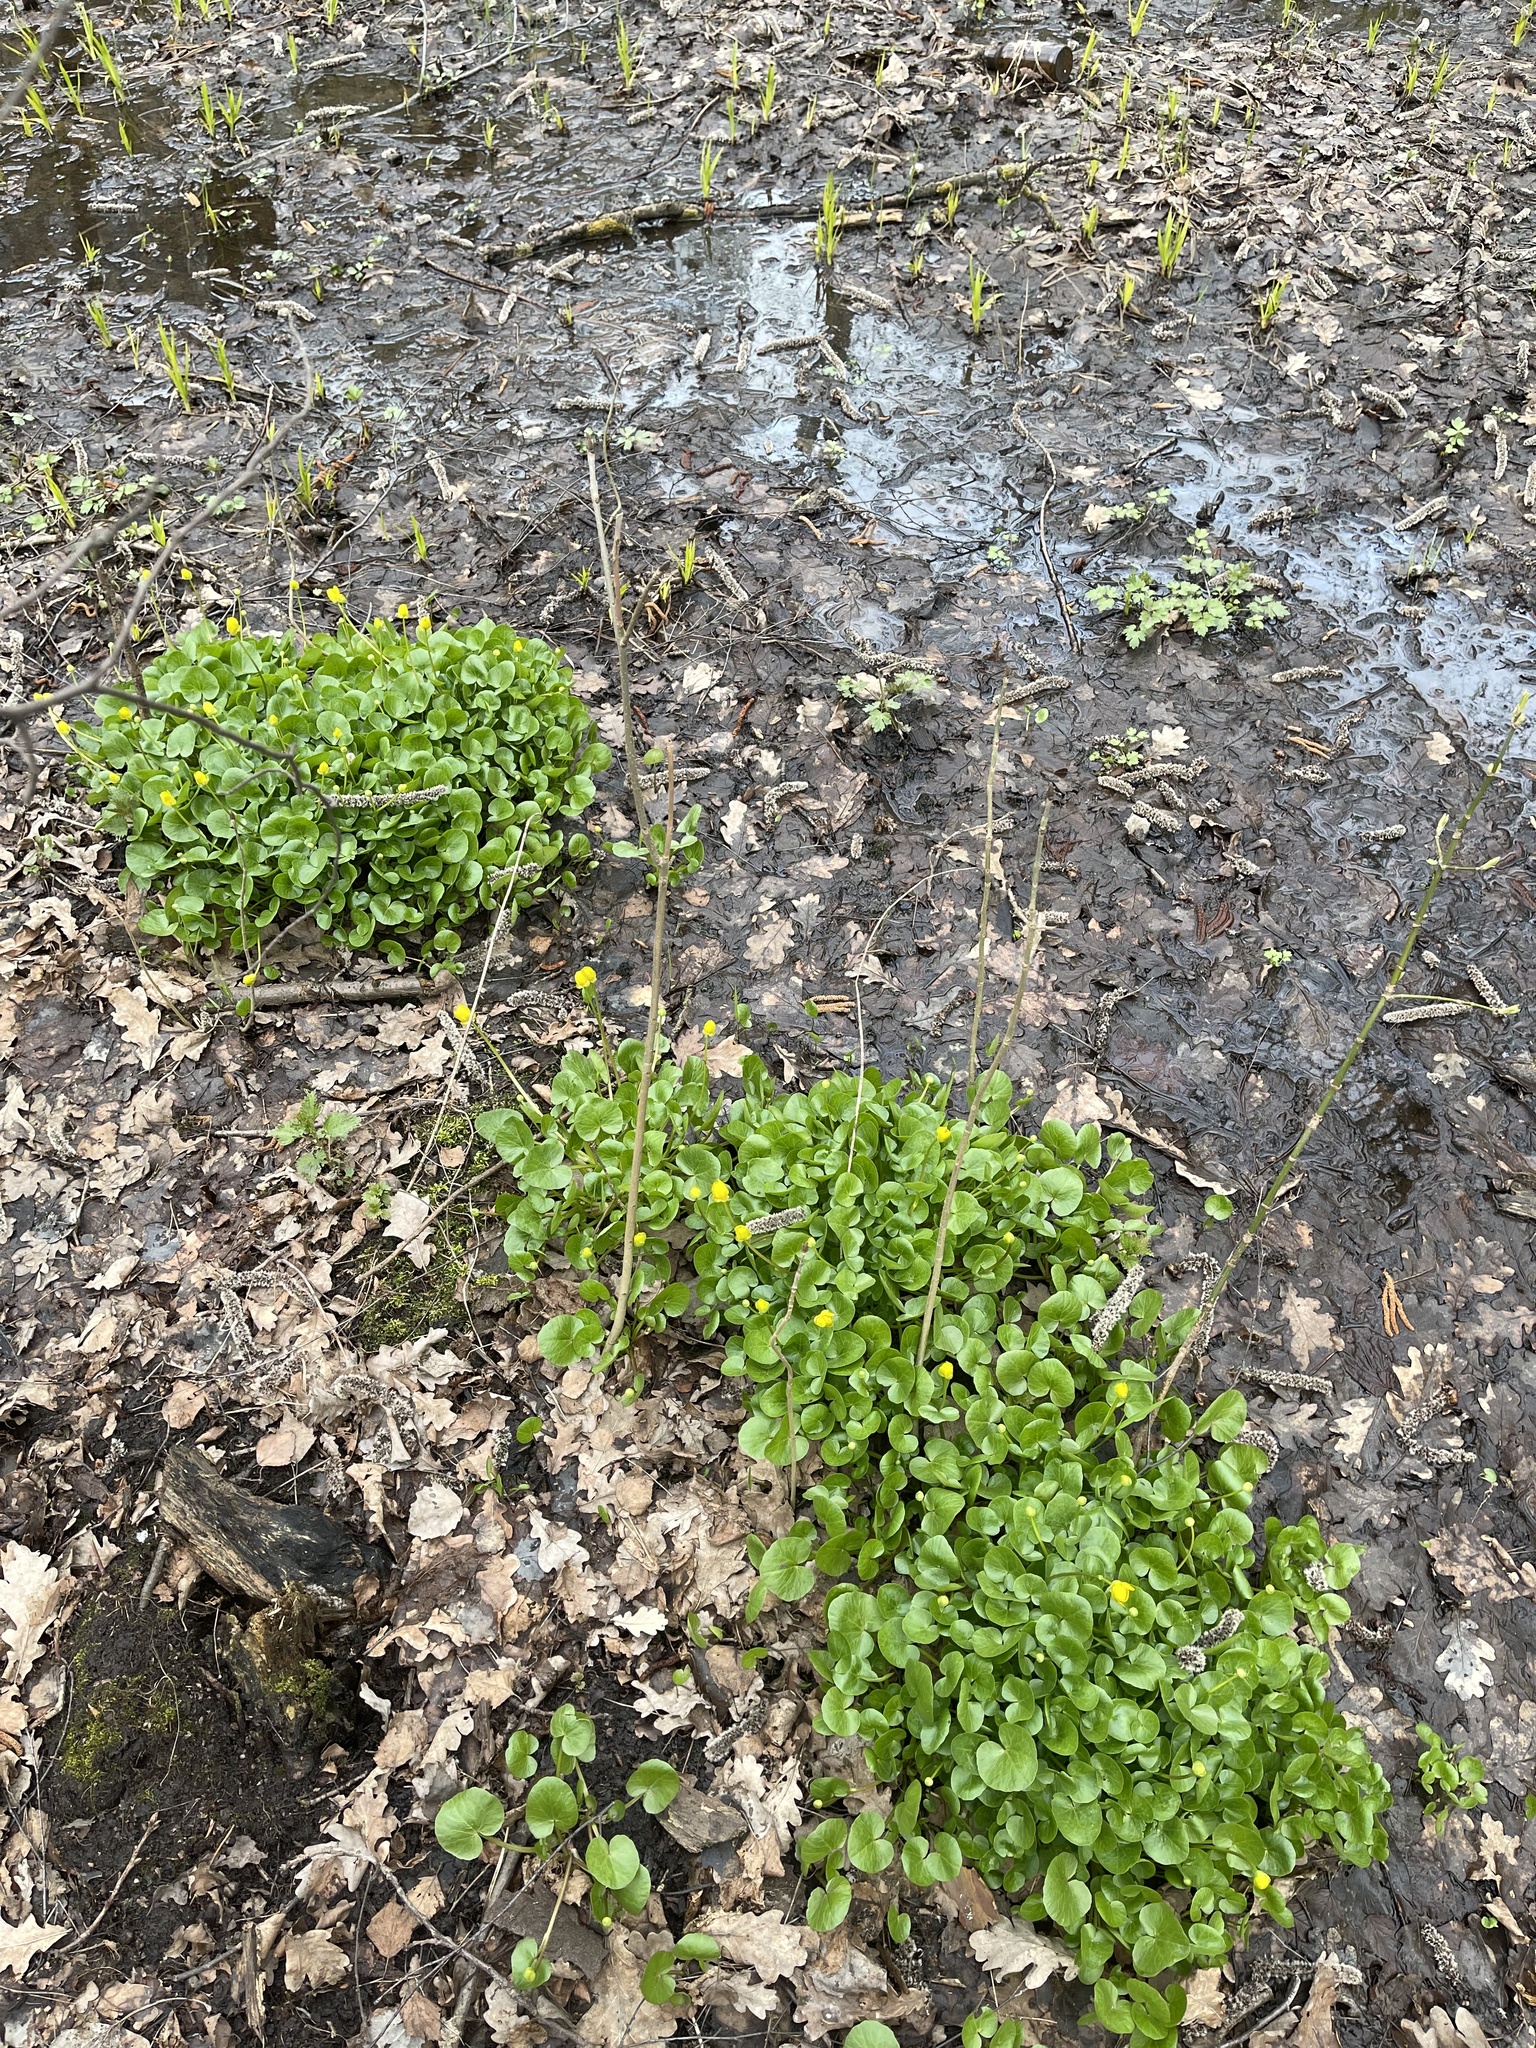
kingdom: Plantae
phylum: Tracheophyta
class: Magnoliopsida
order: Ranunculales
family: Ranunculaceae
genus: Ficaria
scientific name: Ficaria verna
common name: Lesser celandine
